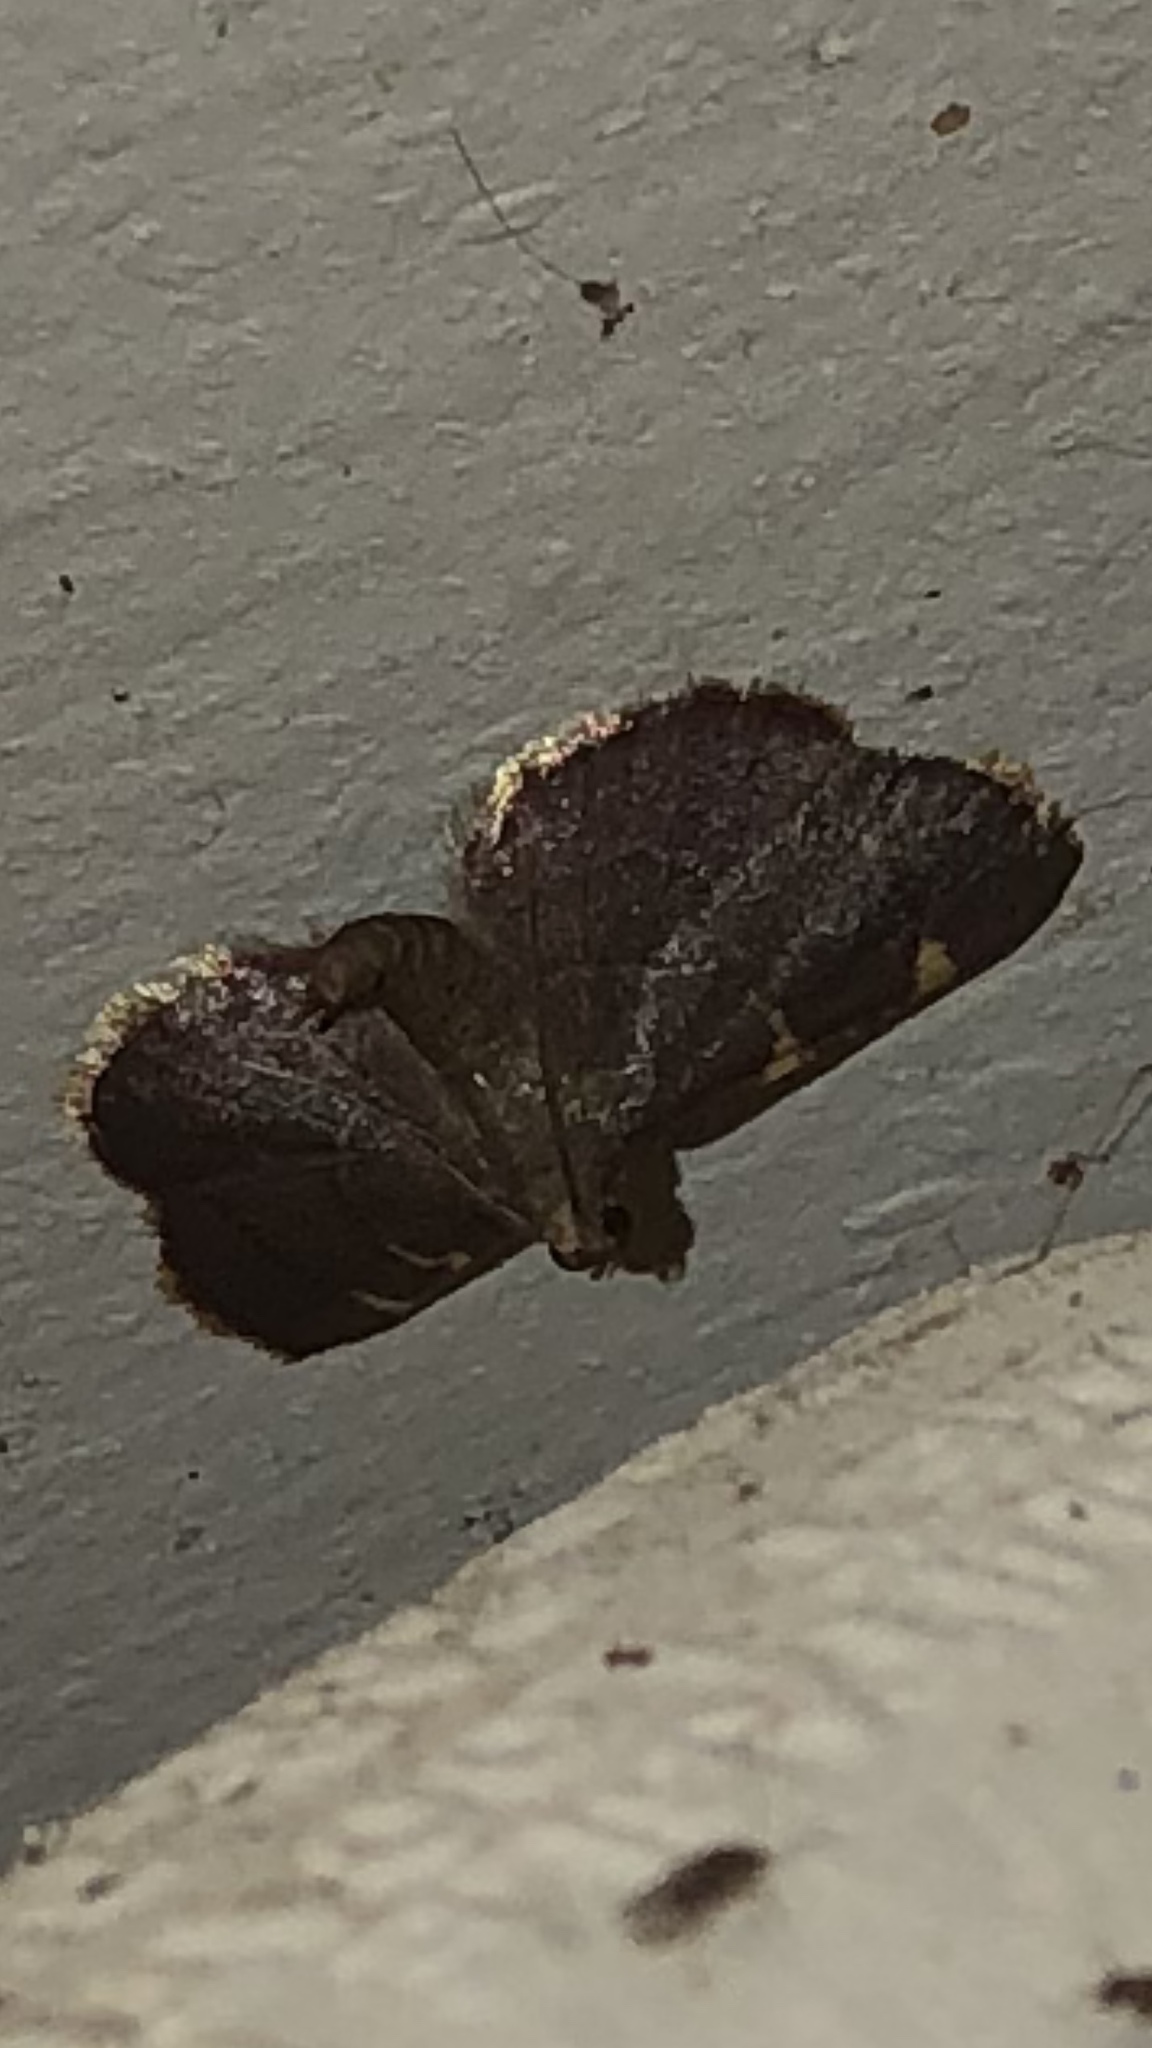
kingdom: Animalia
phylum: Arthropoda
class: Insecta
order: Lepidoptera
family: Pyralidae
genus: Hypsopygia
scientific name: Hypsopygia olinalis
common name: Yellow-fringed dolichomia moth
